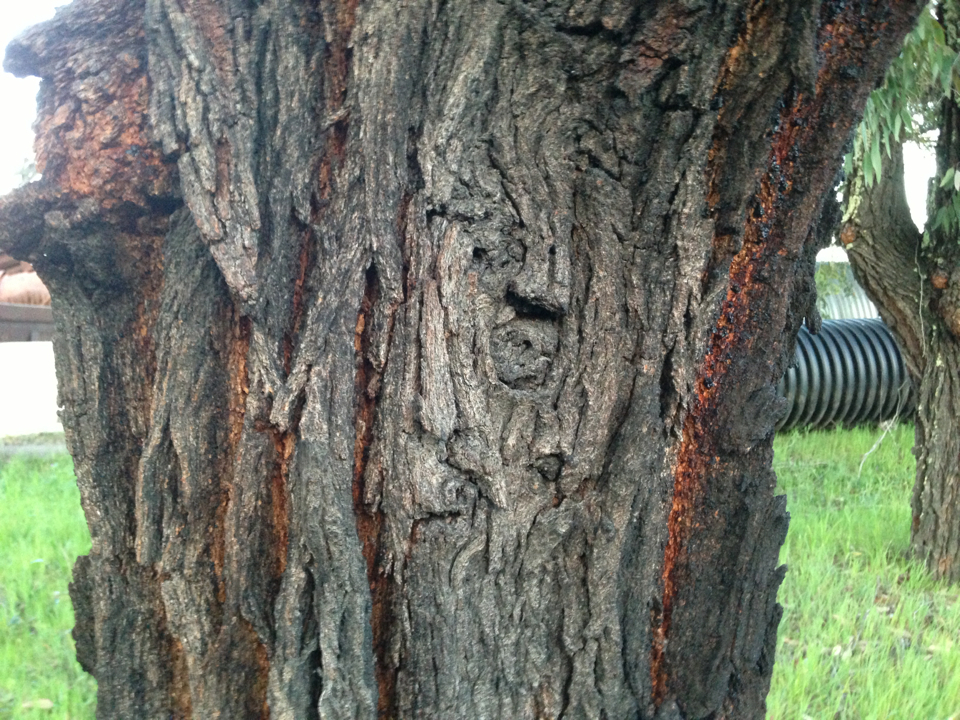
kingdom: Plantae
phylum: Tracheophyta
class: Magnoliopsida
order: Myrtales
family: Myrtaceae
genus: Eucalyptus
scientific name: Eucalyptus sideroxylon
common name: Red ironbark
